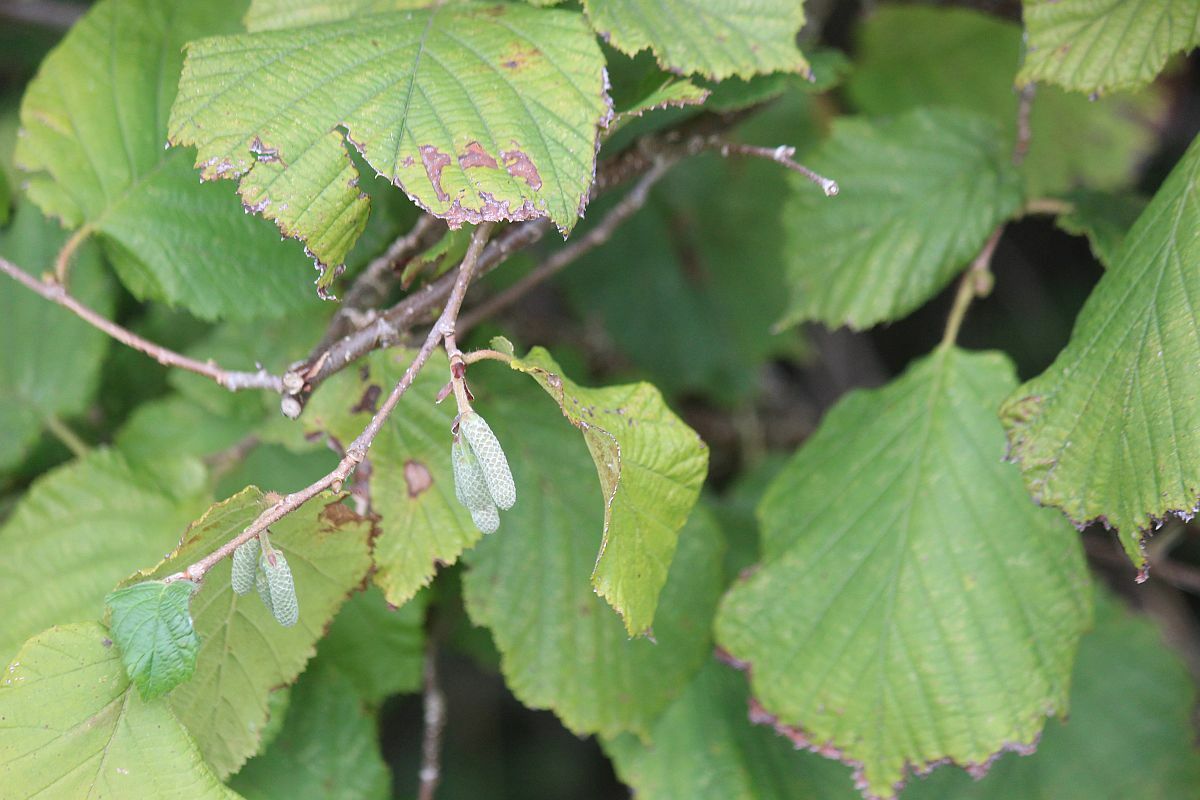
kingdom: Plantae
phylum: Tracheophyta
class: Magnoliopsida
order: Fagales
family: Betulaceae
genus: Corylus
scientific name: Corylus avellana
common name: European hazel
